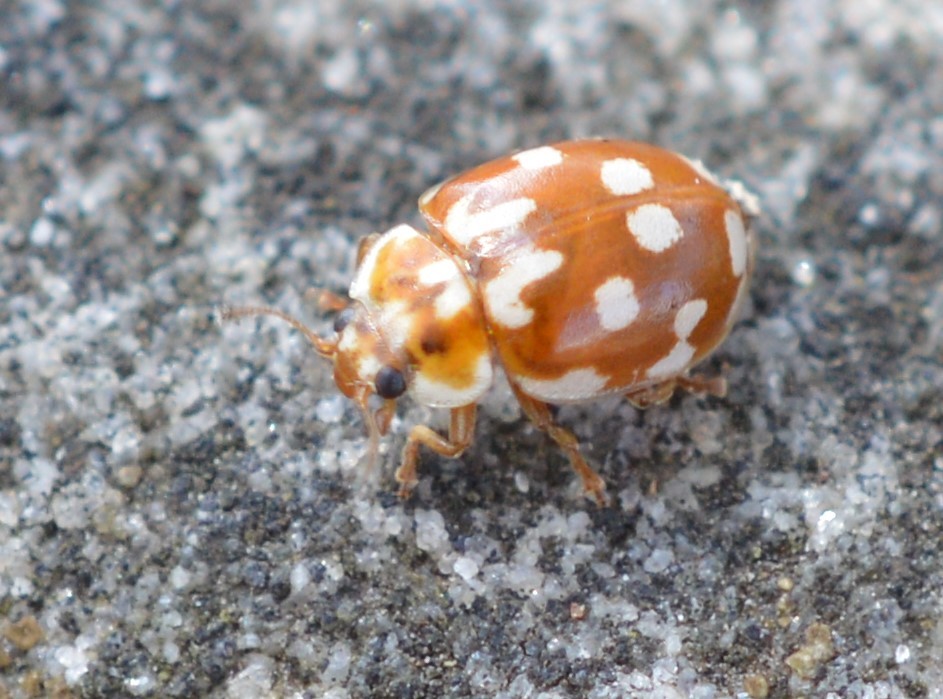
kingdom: Animalia
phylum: Arthropoda
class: Insecta
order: Coleoptera
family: Coccinellidae
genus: Myrrha
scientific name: Myrrha octodecimguttata
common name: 18-spot ladybird
